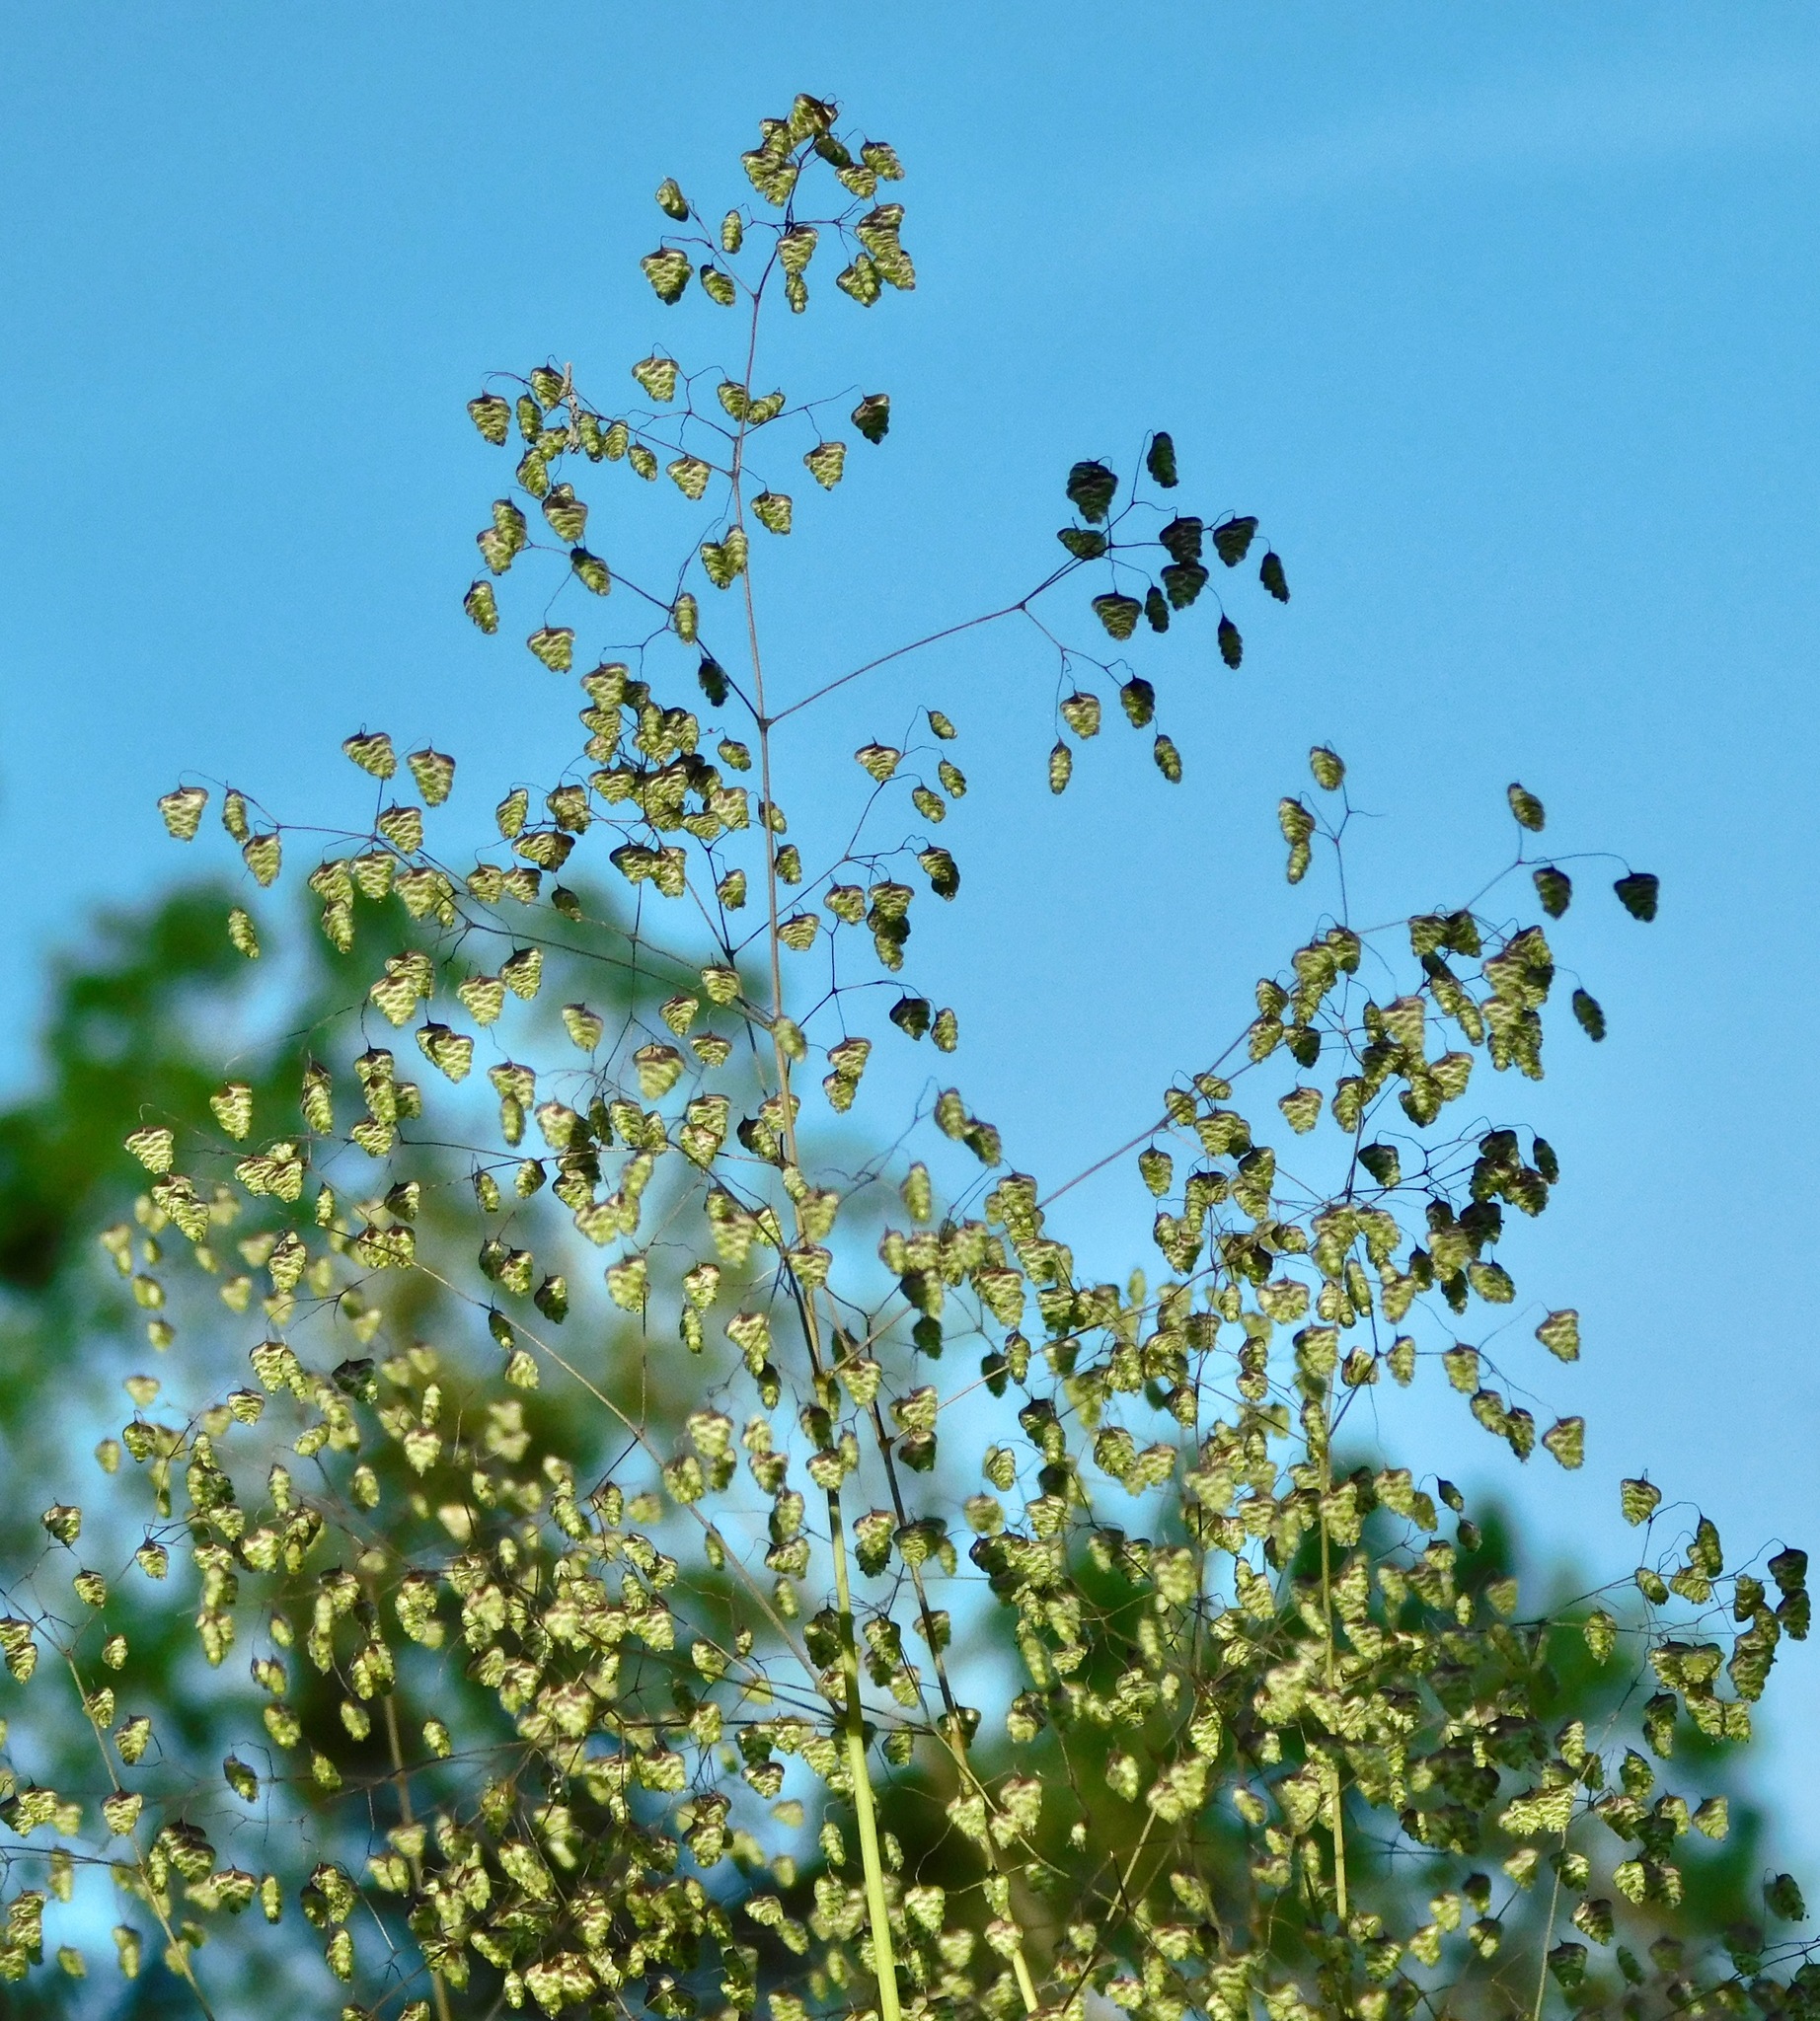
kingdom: Plantae
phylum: Tracheophyta
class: Liliopsida
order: Poales
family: Poaceae
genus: Briza
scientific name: Briza minor
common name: Lesser quaking-grass
